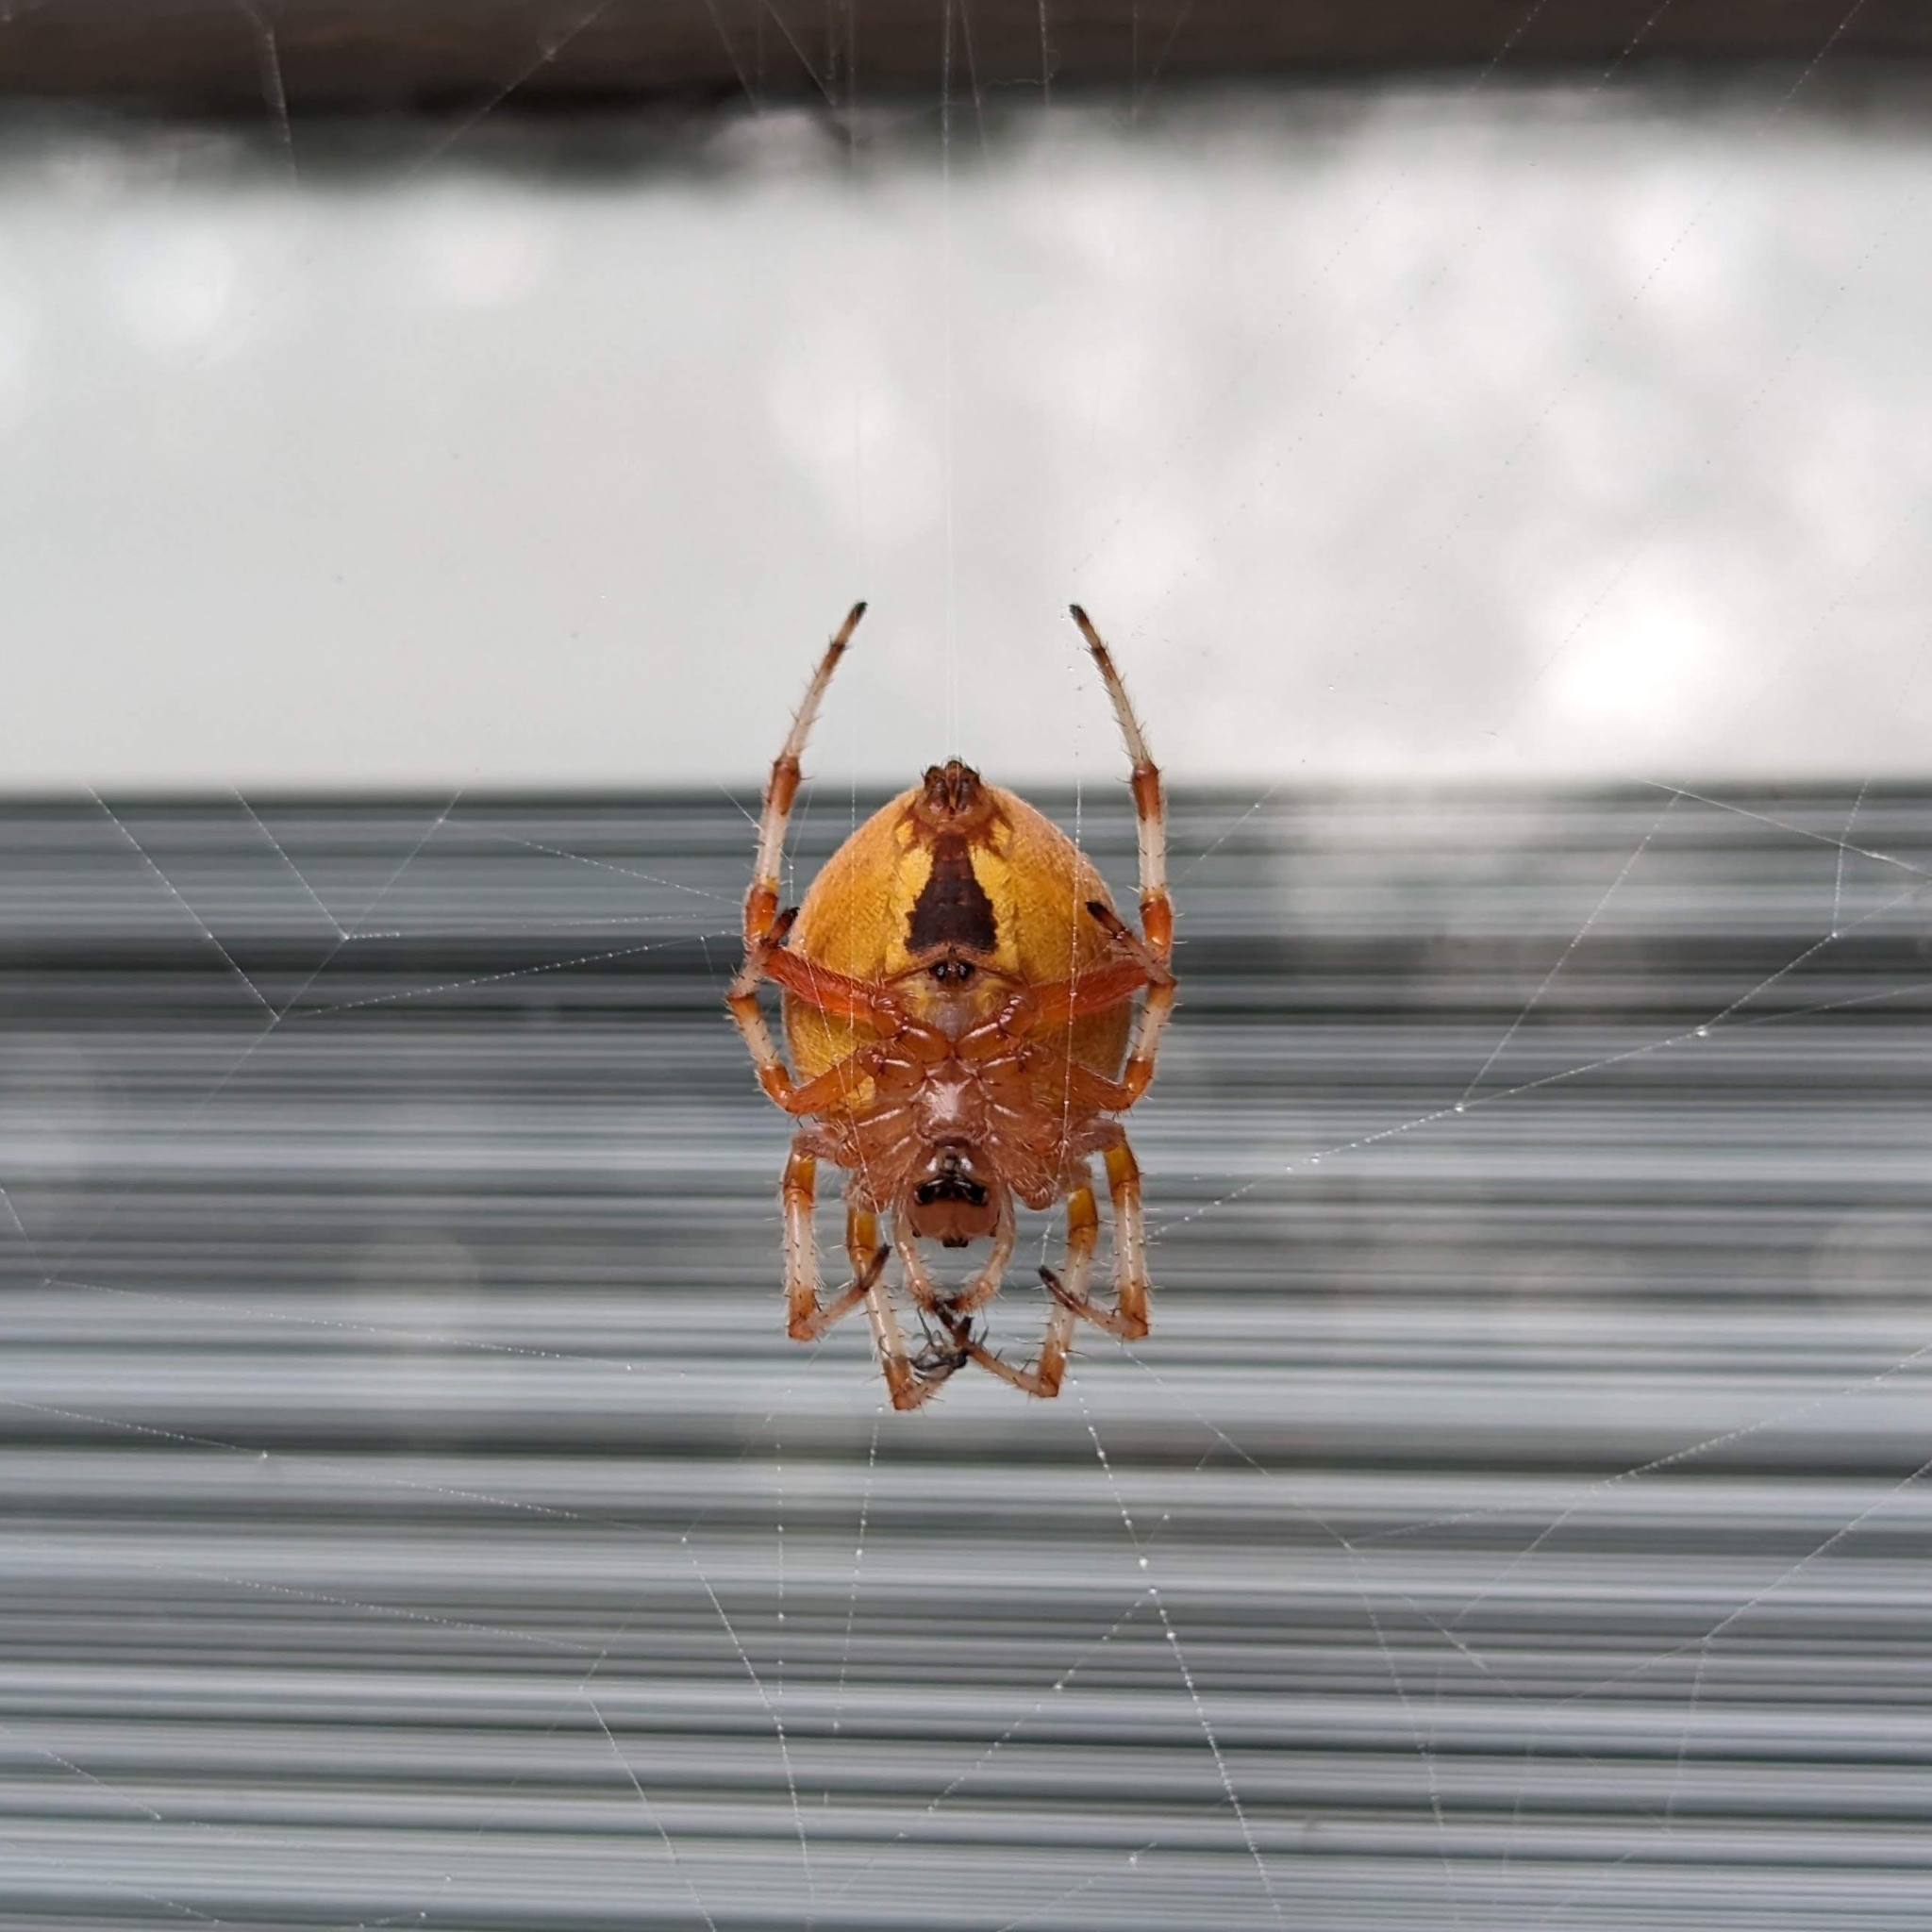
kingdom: Animalia
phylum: Arthropoda
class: Arachnida
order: Araneae
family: Araneidae
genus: Araneus
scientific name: Araneus marmoreus
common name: Marbled orbweaver
